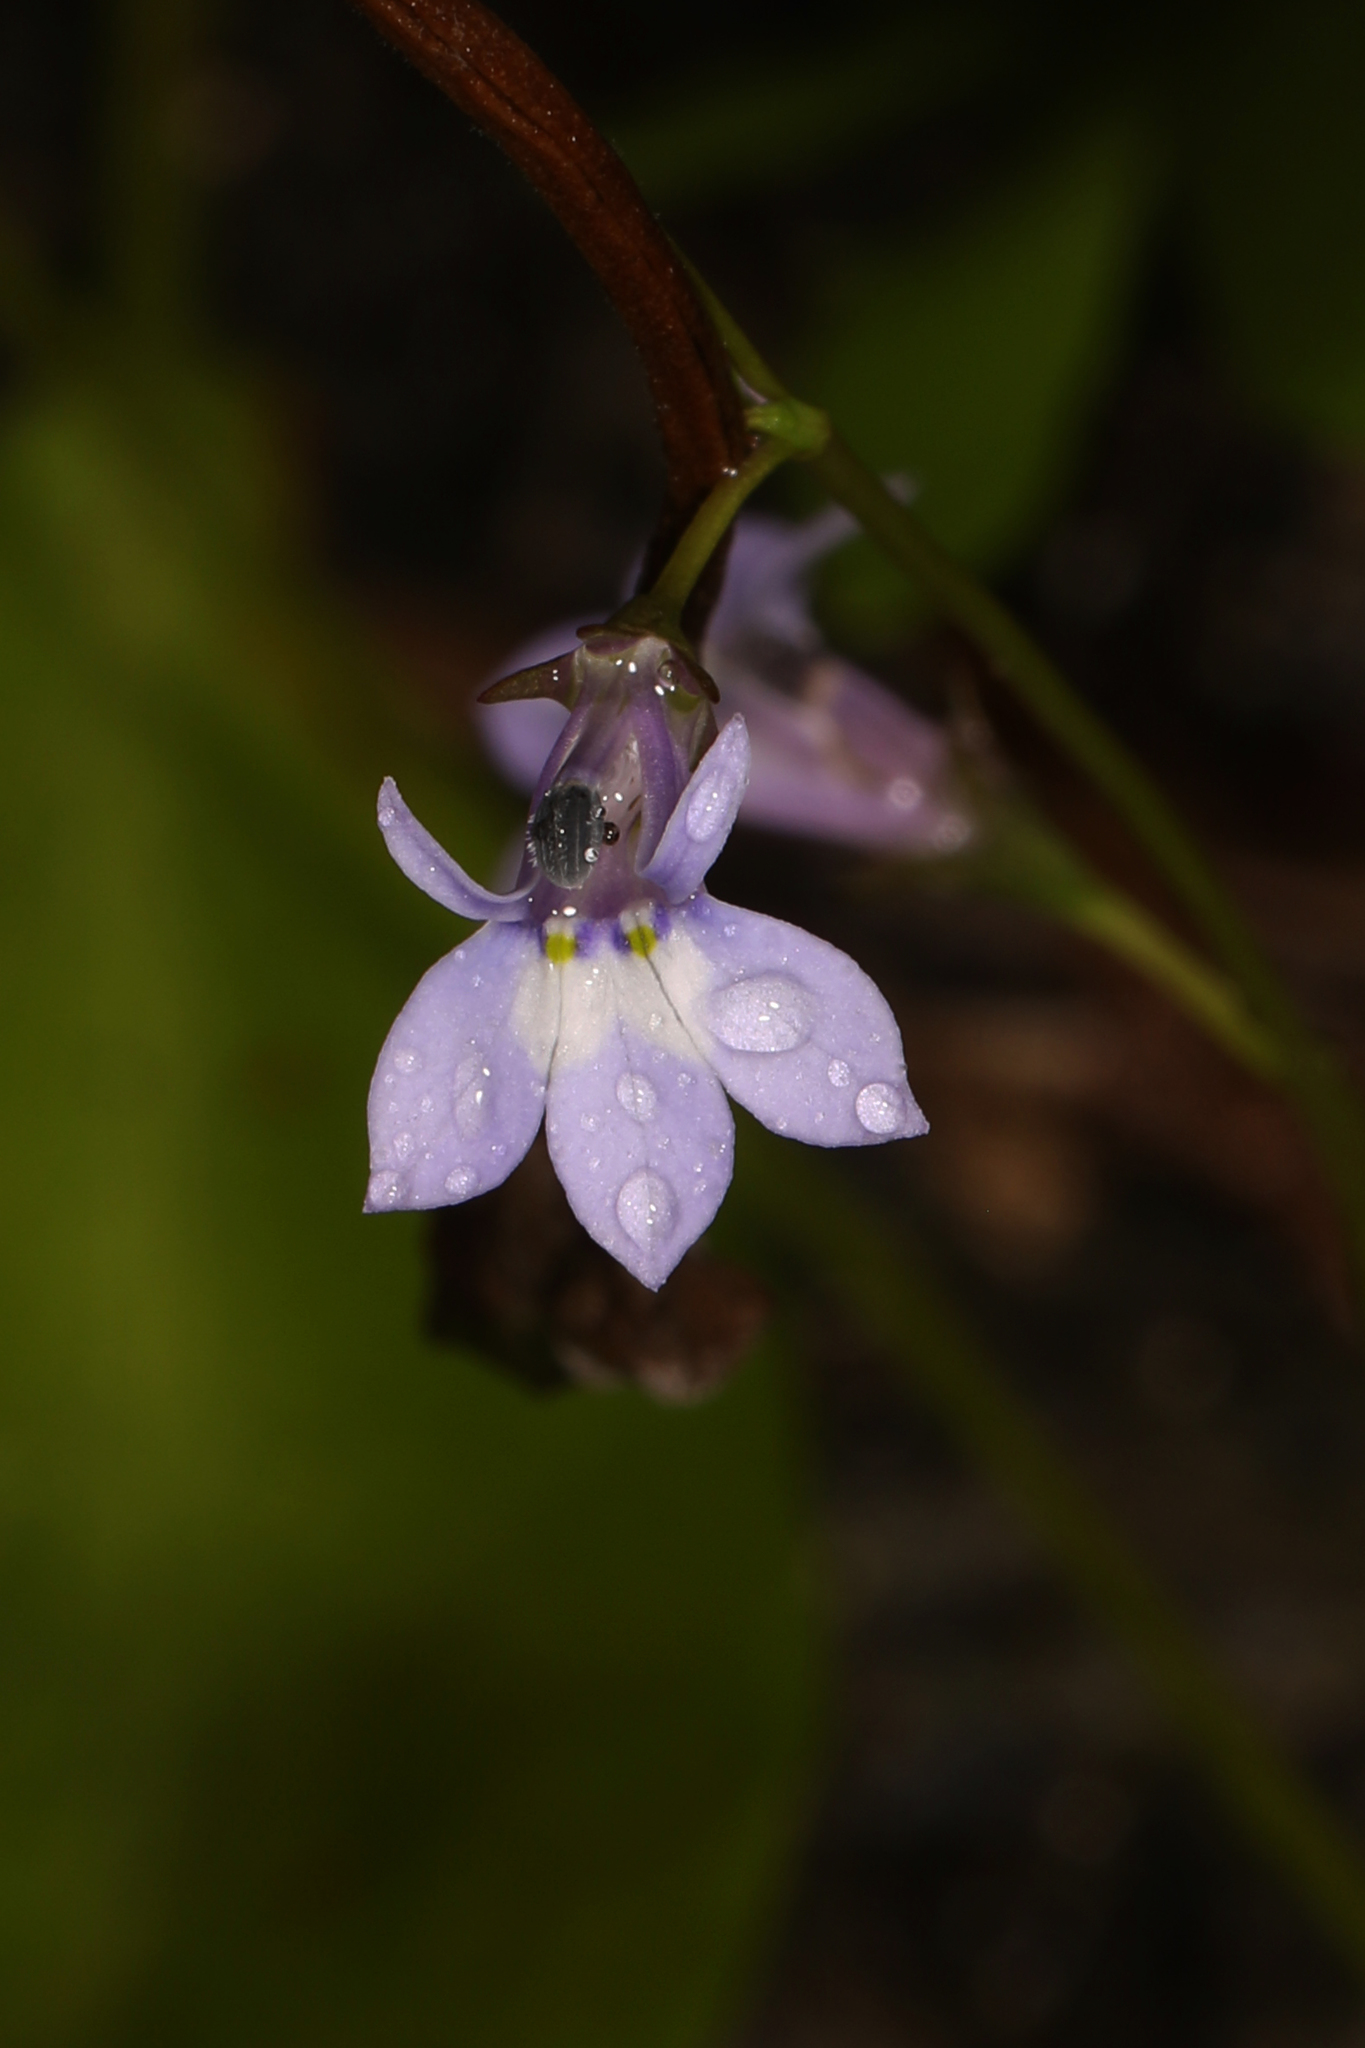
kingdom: Plantae
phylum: Tracheophyta
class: Magnoliopsida
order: Asterales
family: Campanulaceae
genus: Lobelia
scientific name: Lobelia feayana
